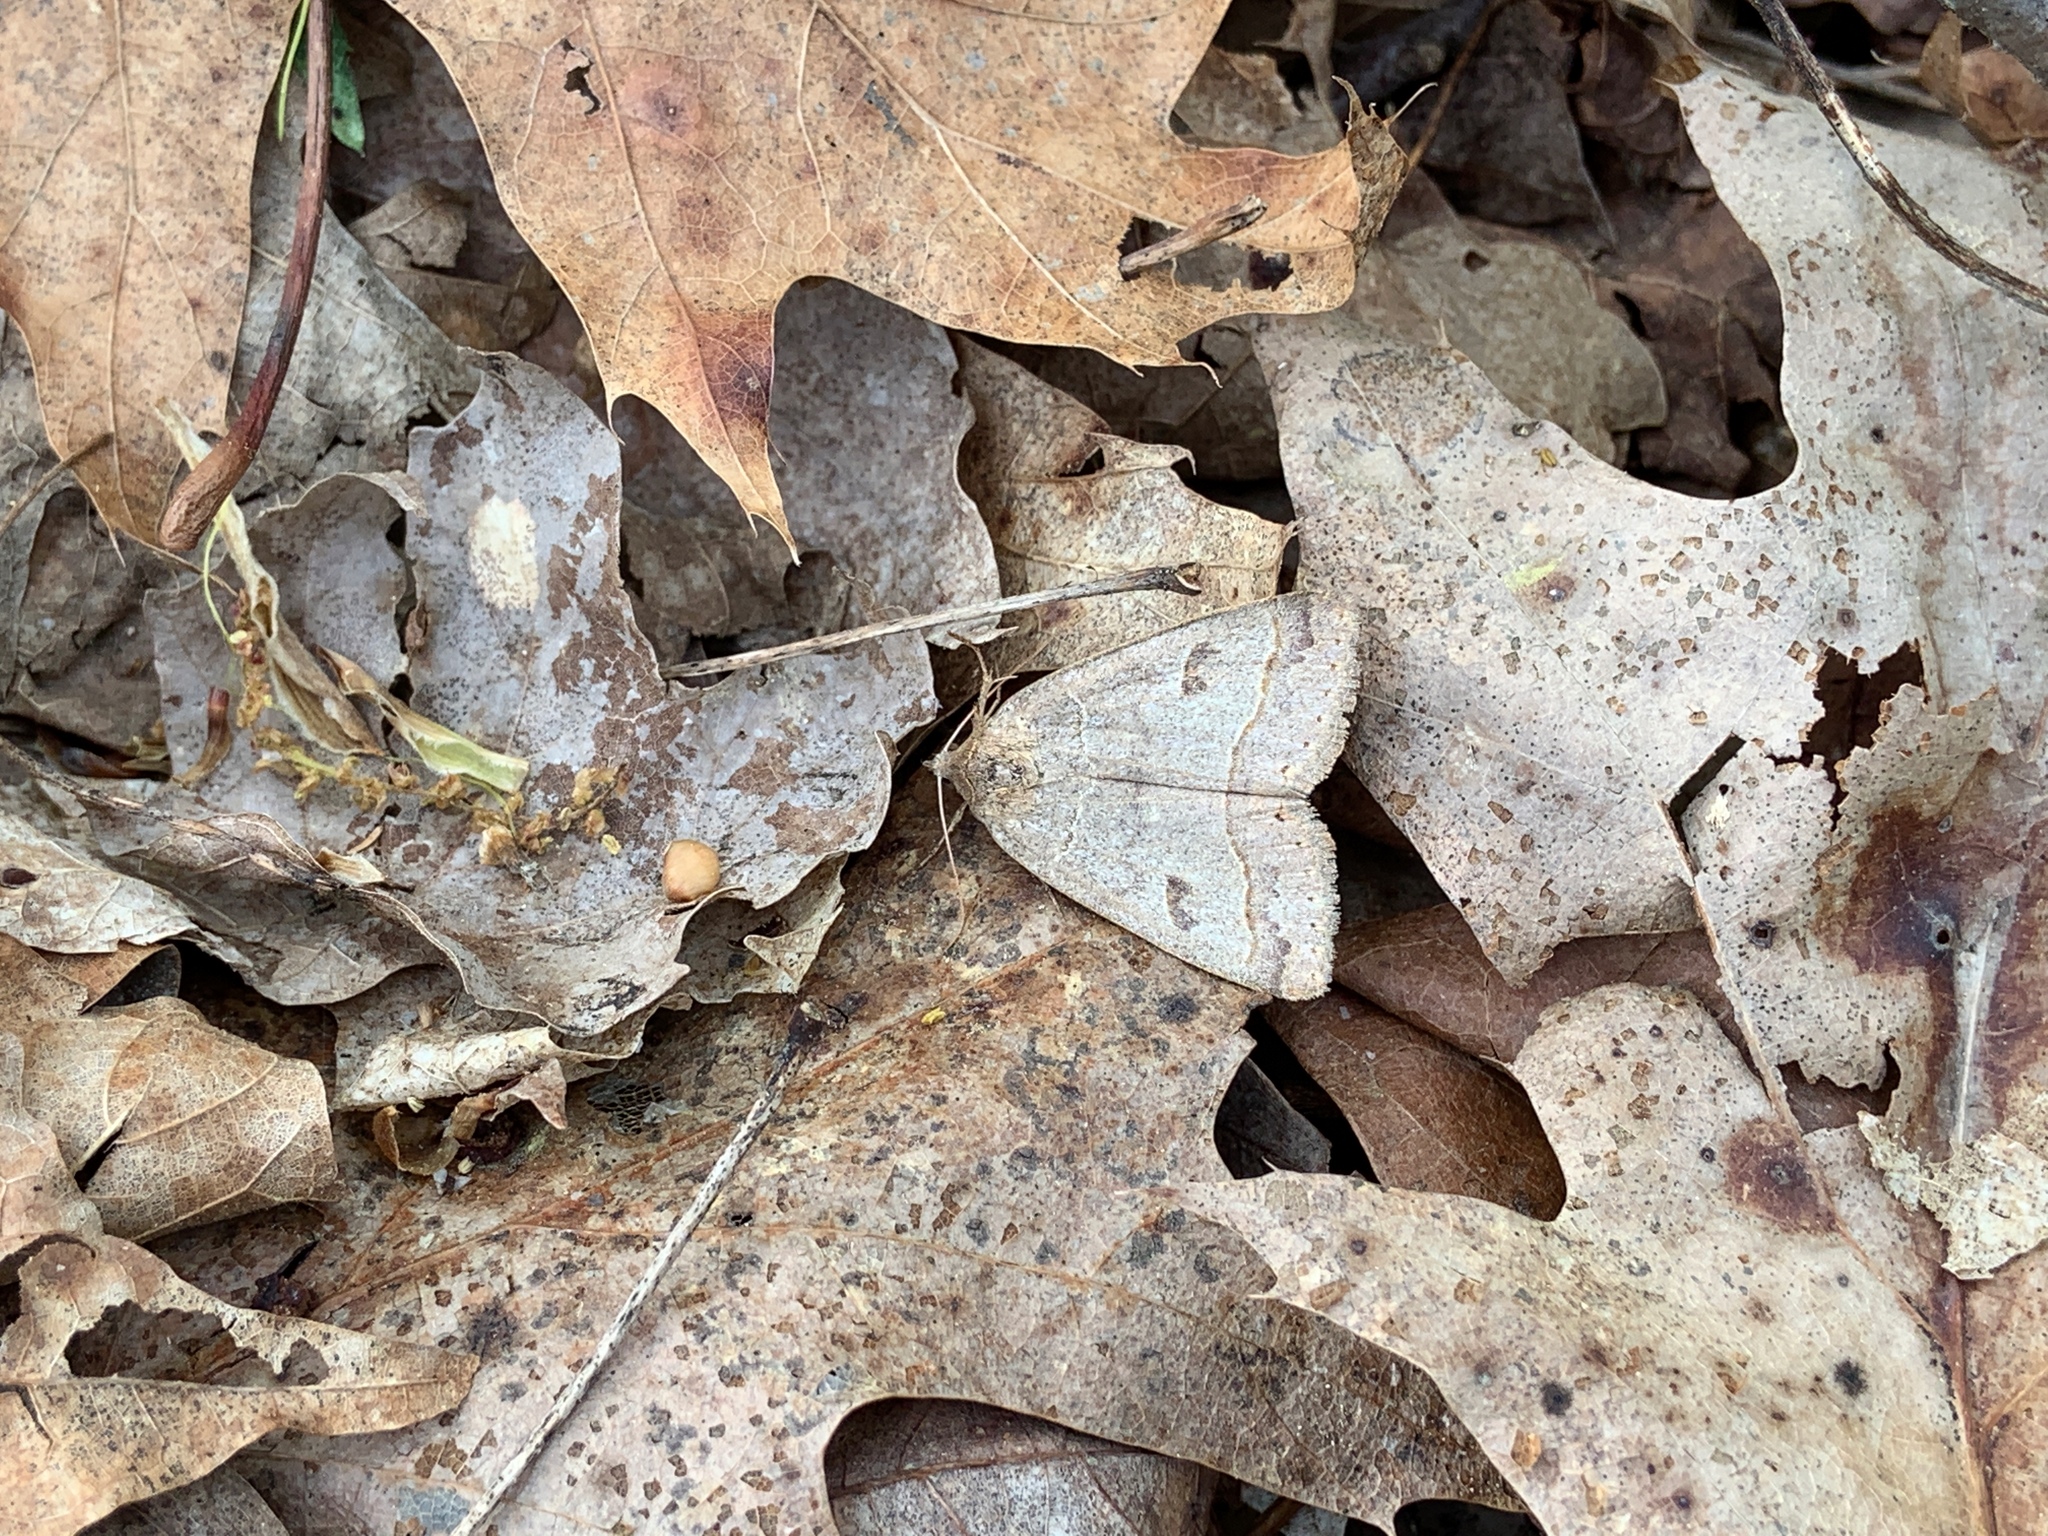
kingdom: Animalia
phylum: Arthropoda
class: Insecta
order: Lepidoptera
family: Erebidae
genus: Phoberia
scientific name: Phoberia atomaris
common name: Common oak moth
